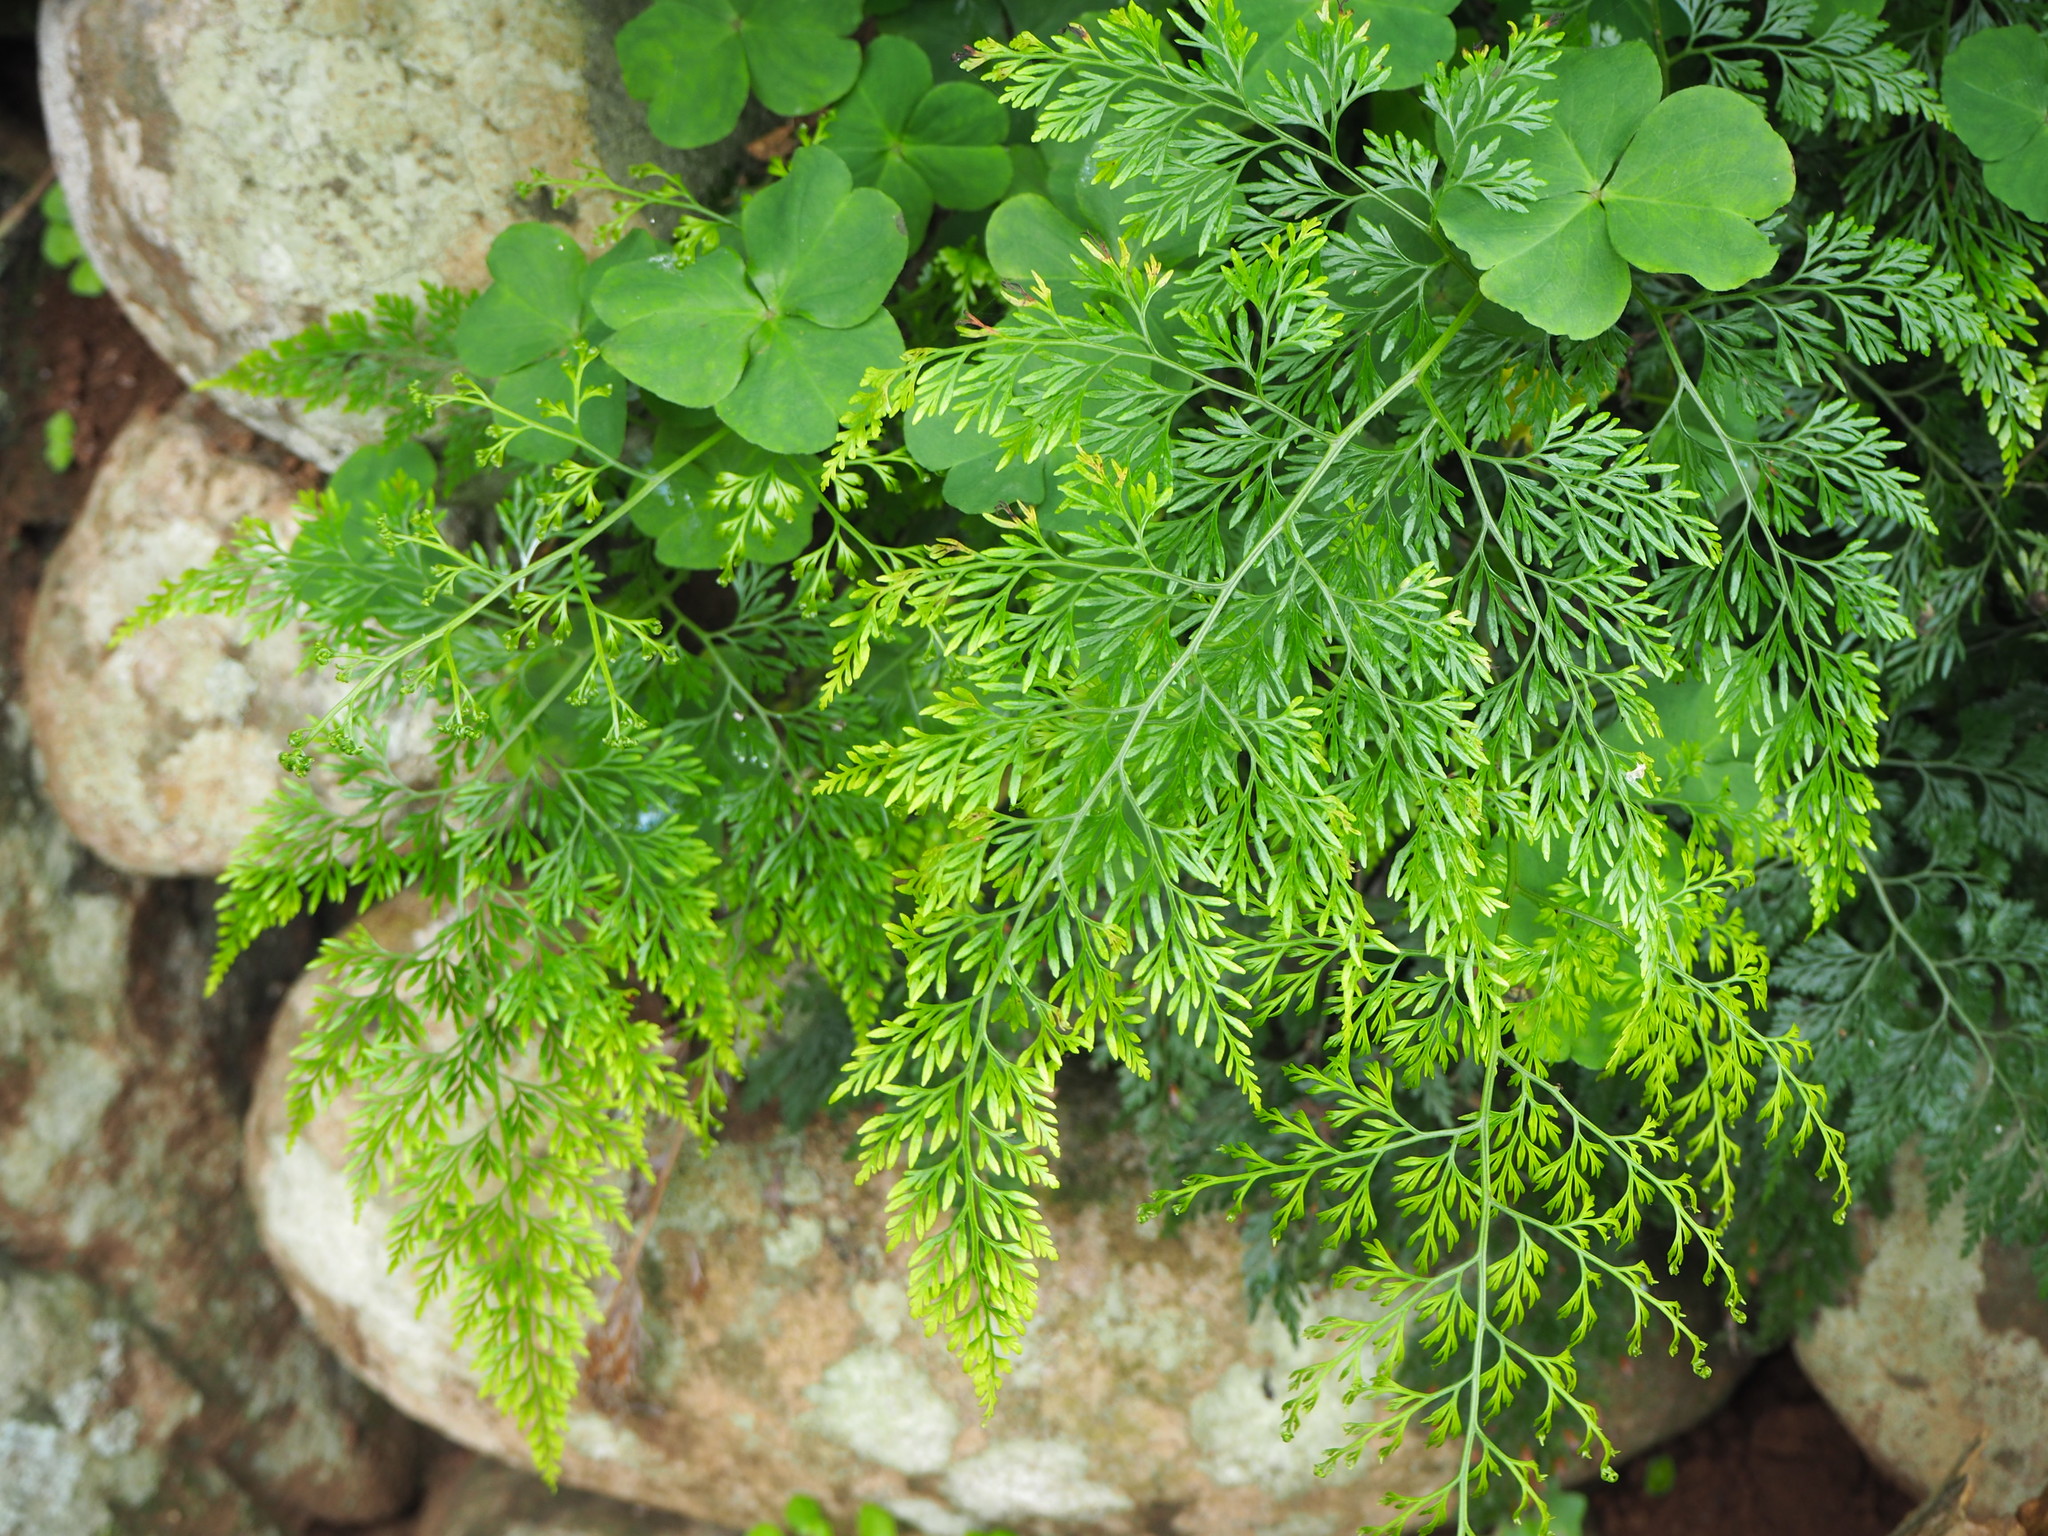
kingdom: Plantae
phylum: Tracheophyta
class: Polypodiopsida
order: Polypodiales
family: Pteridaceae
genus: Onychium
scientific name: Onychium japonicum
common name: Carrot fern
